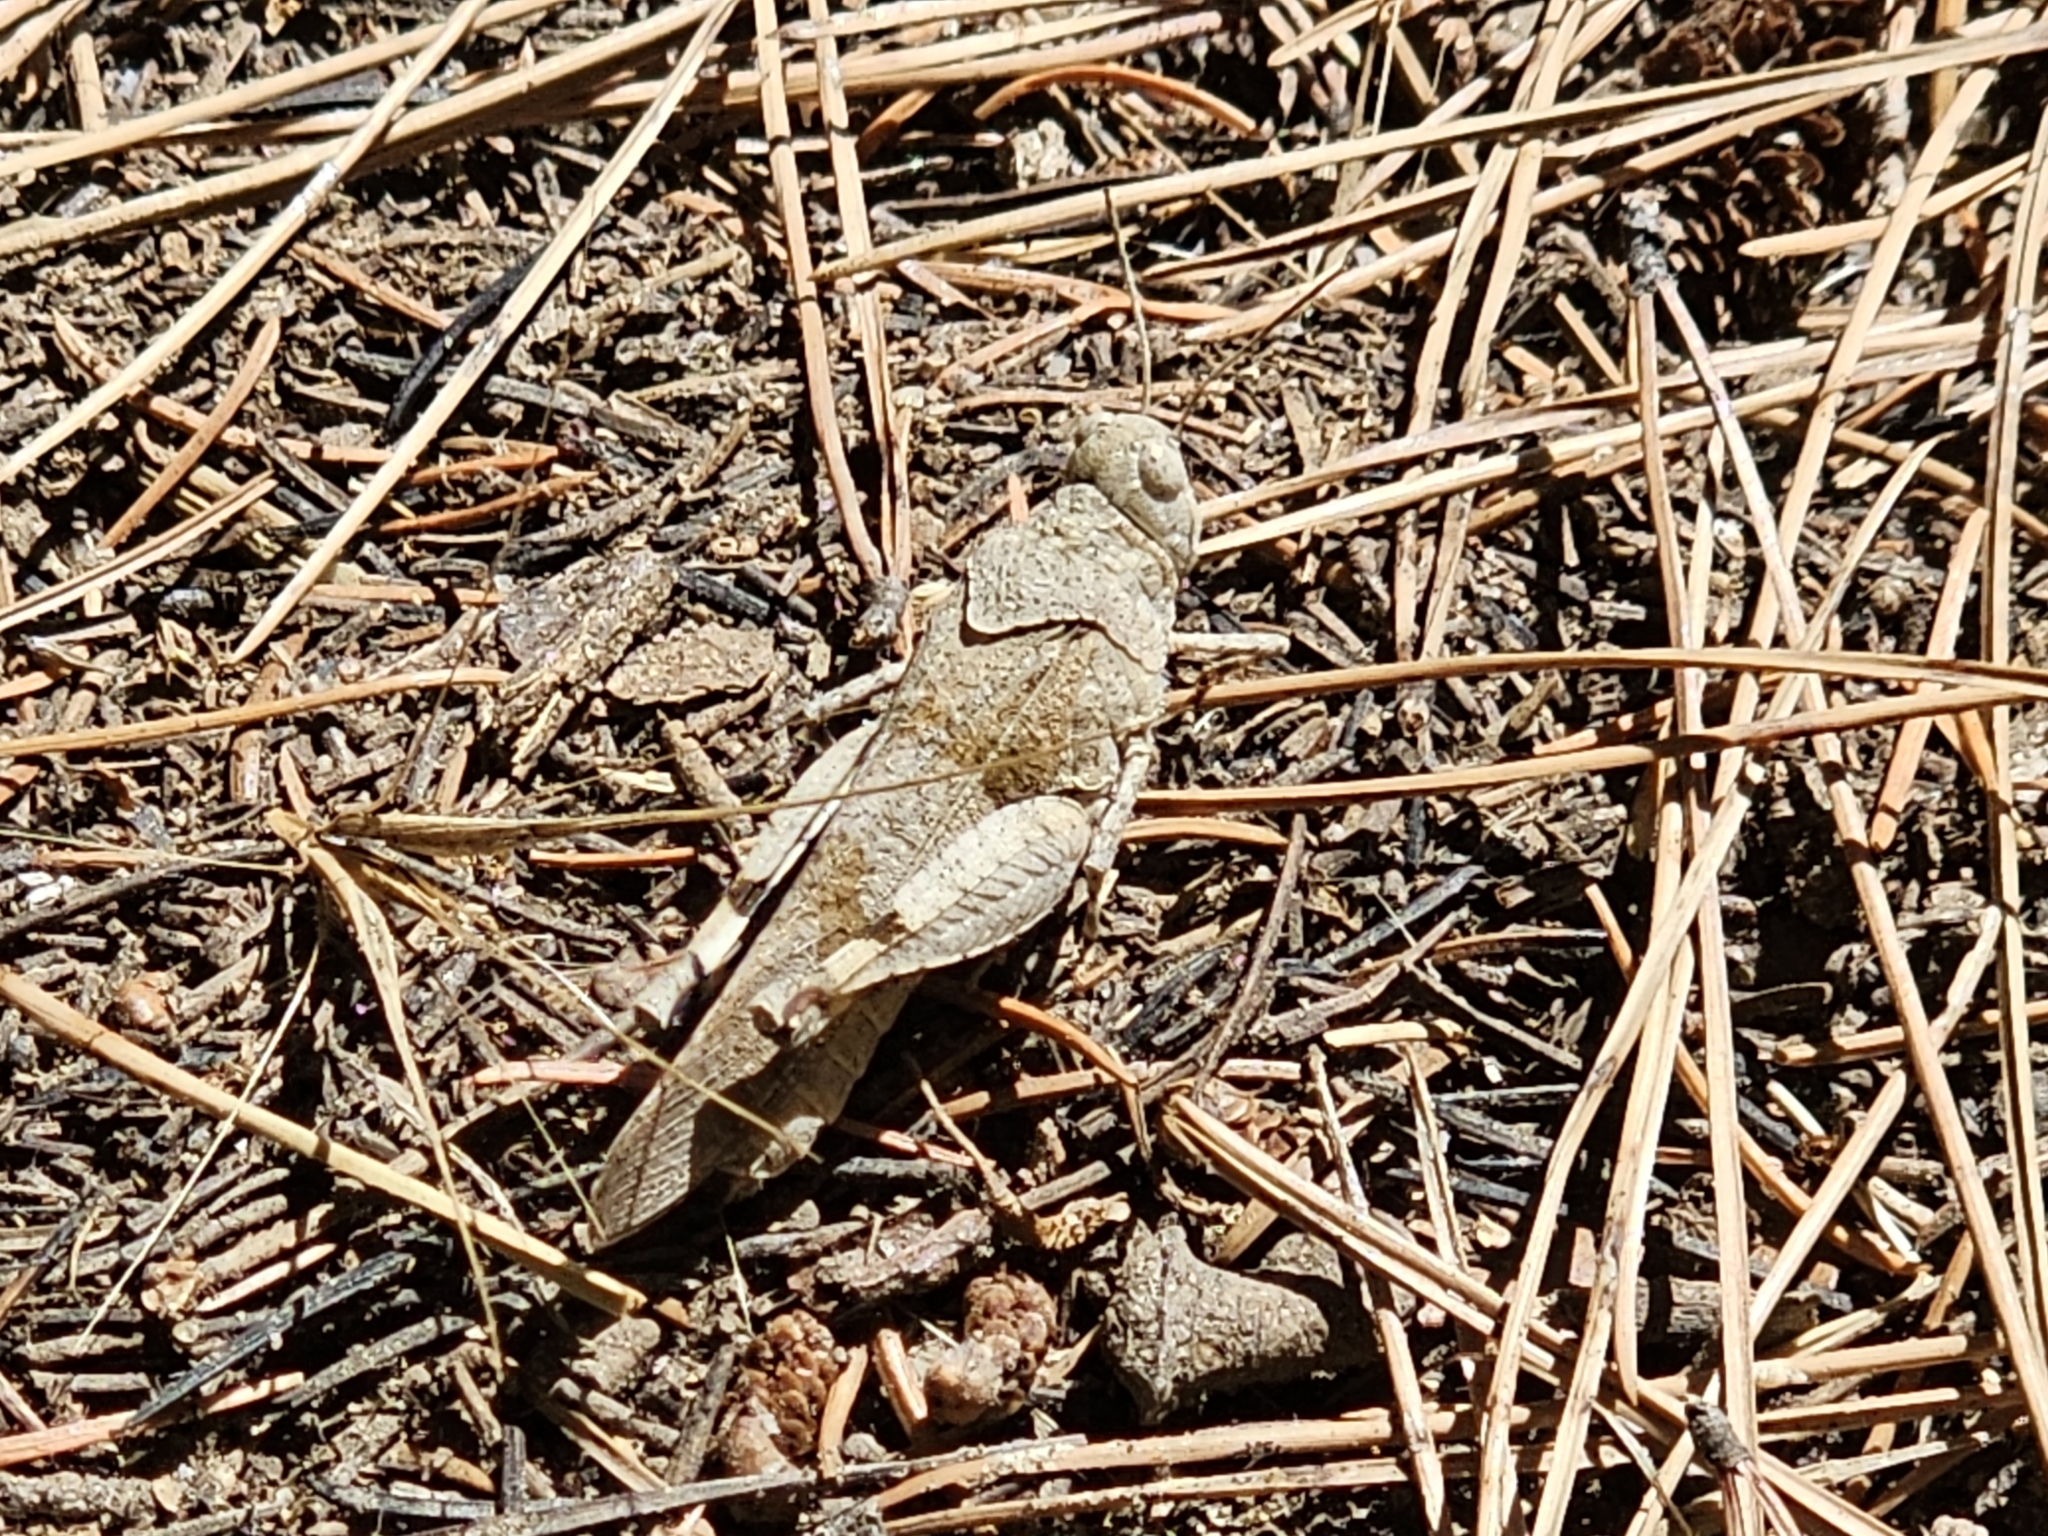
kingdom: Animalia
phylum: Arthropoda
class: Insecta
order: Orthoptera
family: Acrididae
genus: Oedipoda
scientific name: Oedipoda caerulescens
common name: Blue-winged grasshopper
